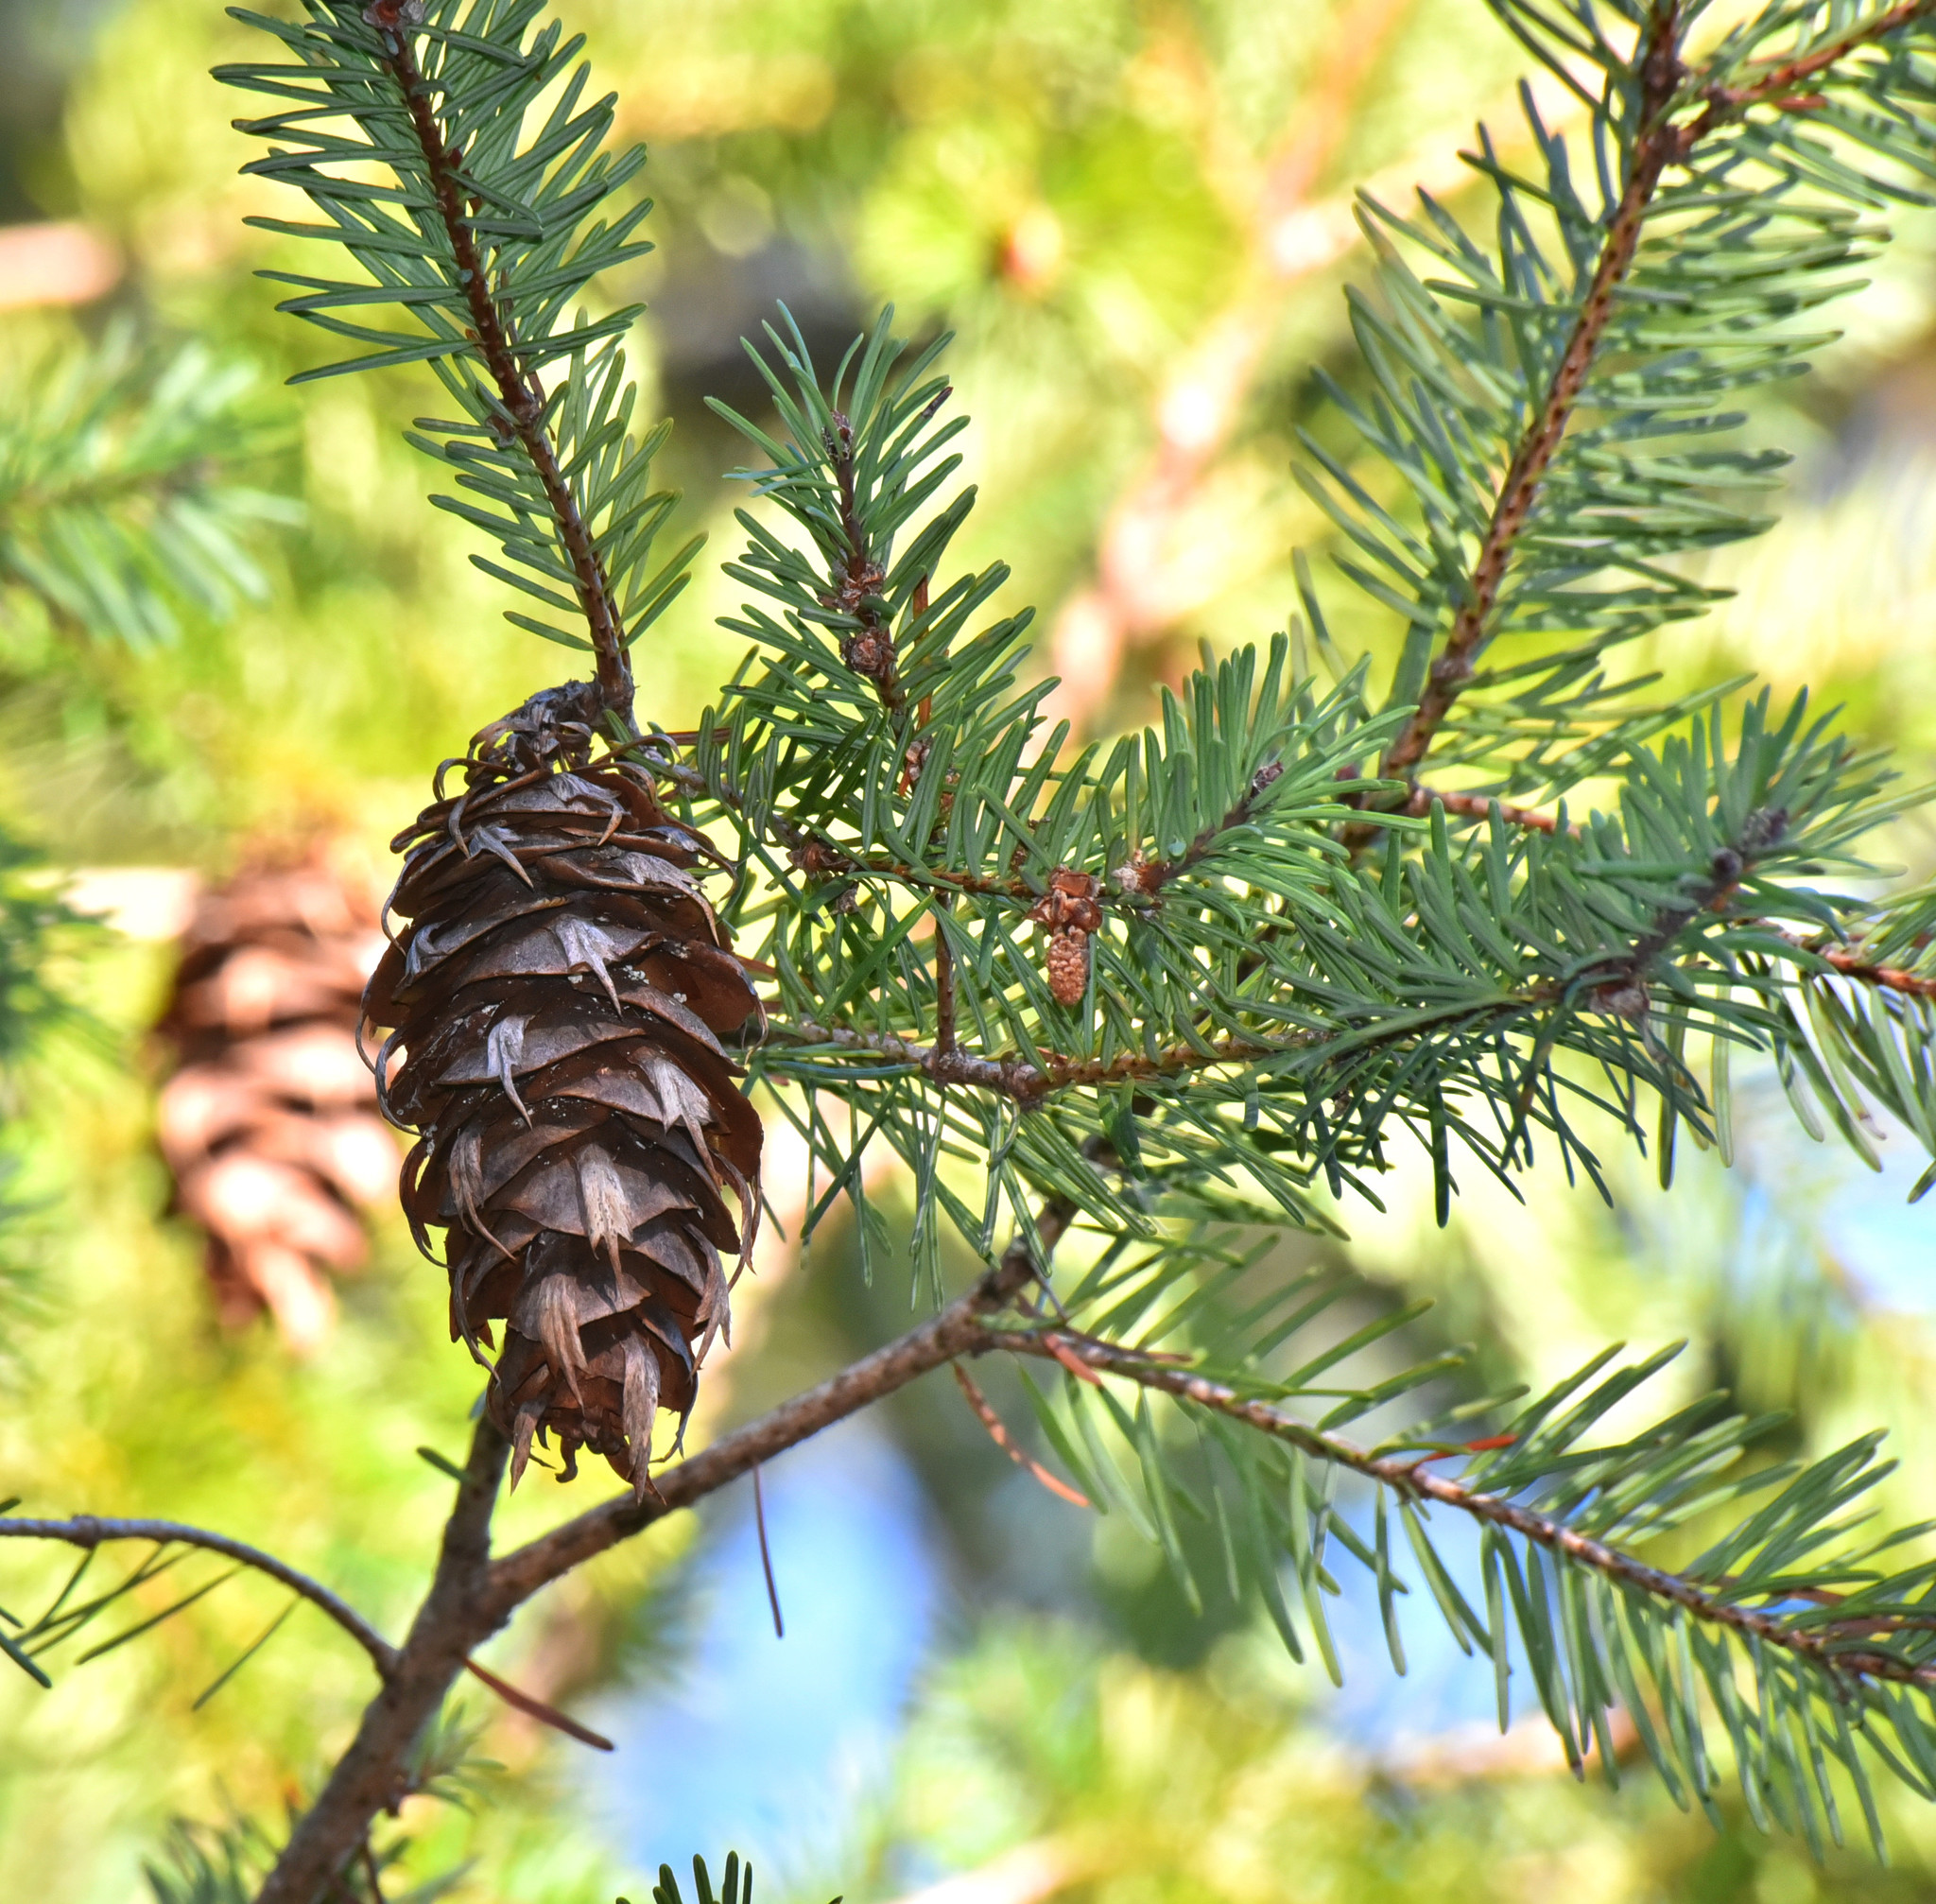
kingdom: Plantae
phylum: Tracheophyta
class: Pinopsida
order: Pinales
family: Pinaceae
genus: Pseudotsuga
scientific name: Pseudotsuga menziesii
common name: Douglas fir
